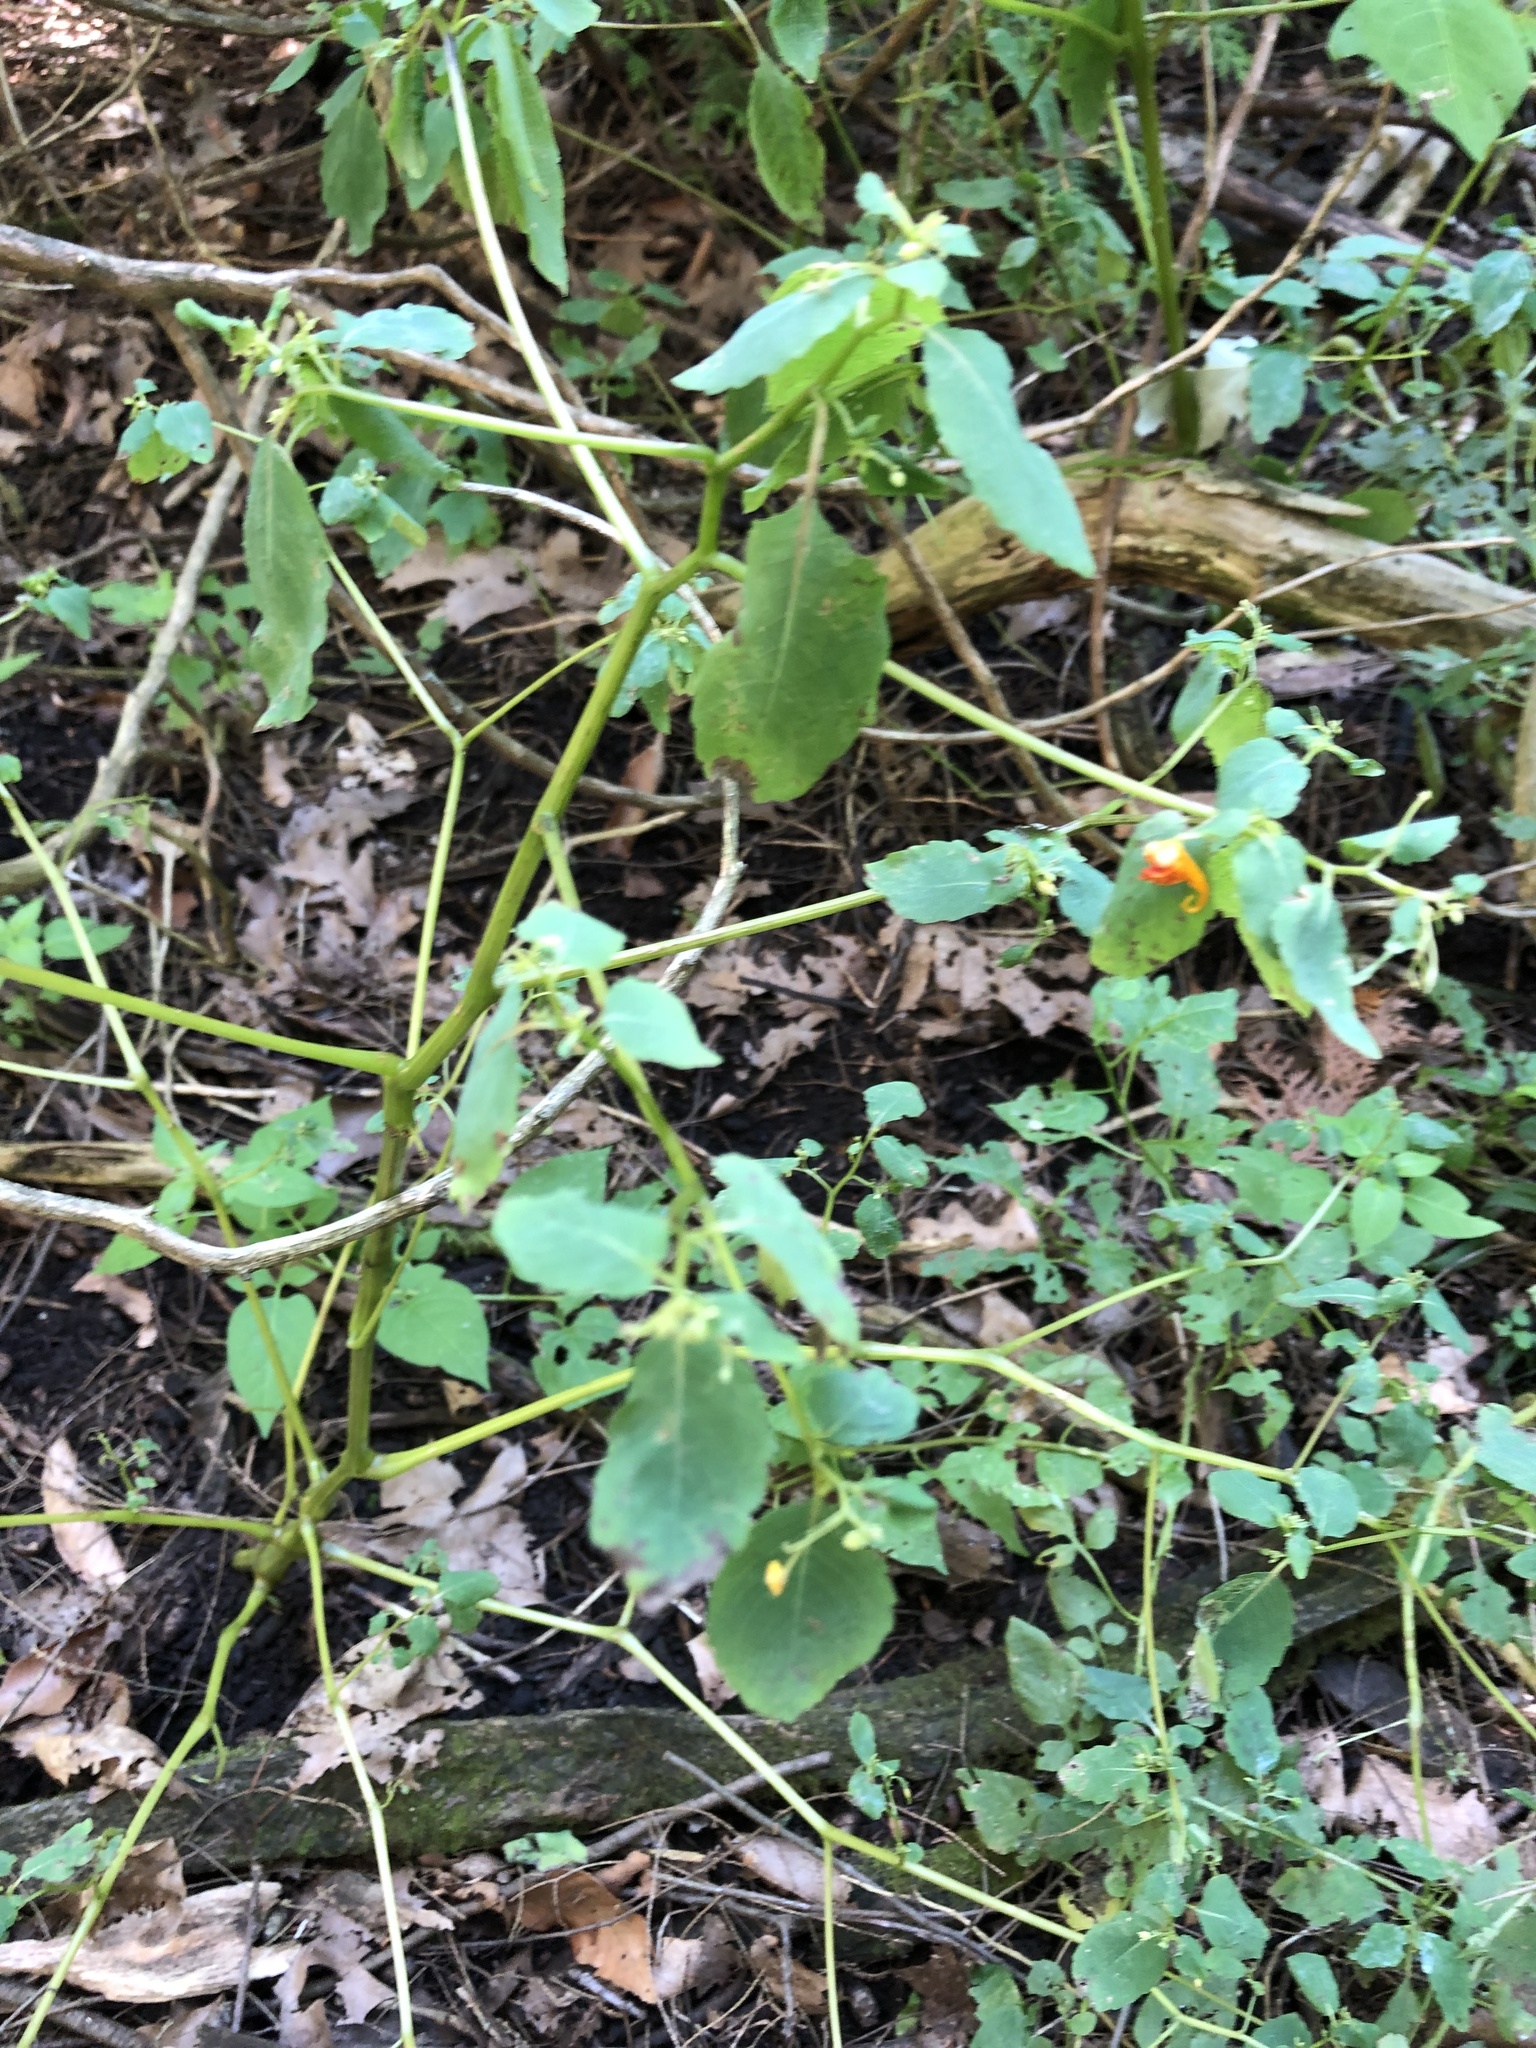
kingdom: Plantae
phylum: Tracheophyta
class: Magnoliopsida
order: Ericales
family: Balsaminaceae
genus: Impatiens
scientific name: Impatiens capensis
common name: Orange balsam
